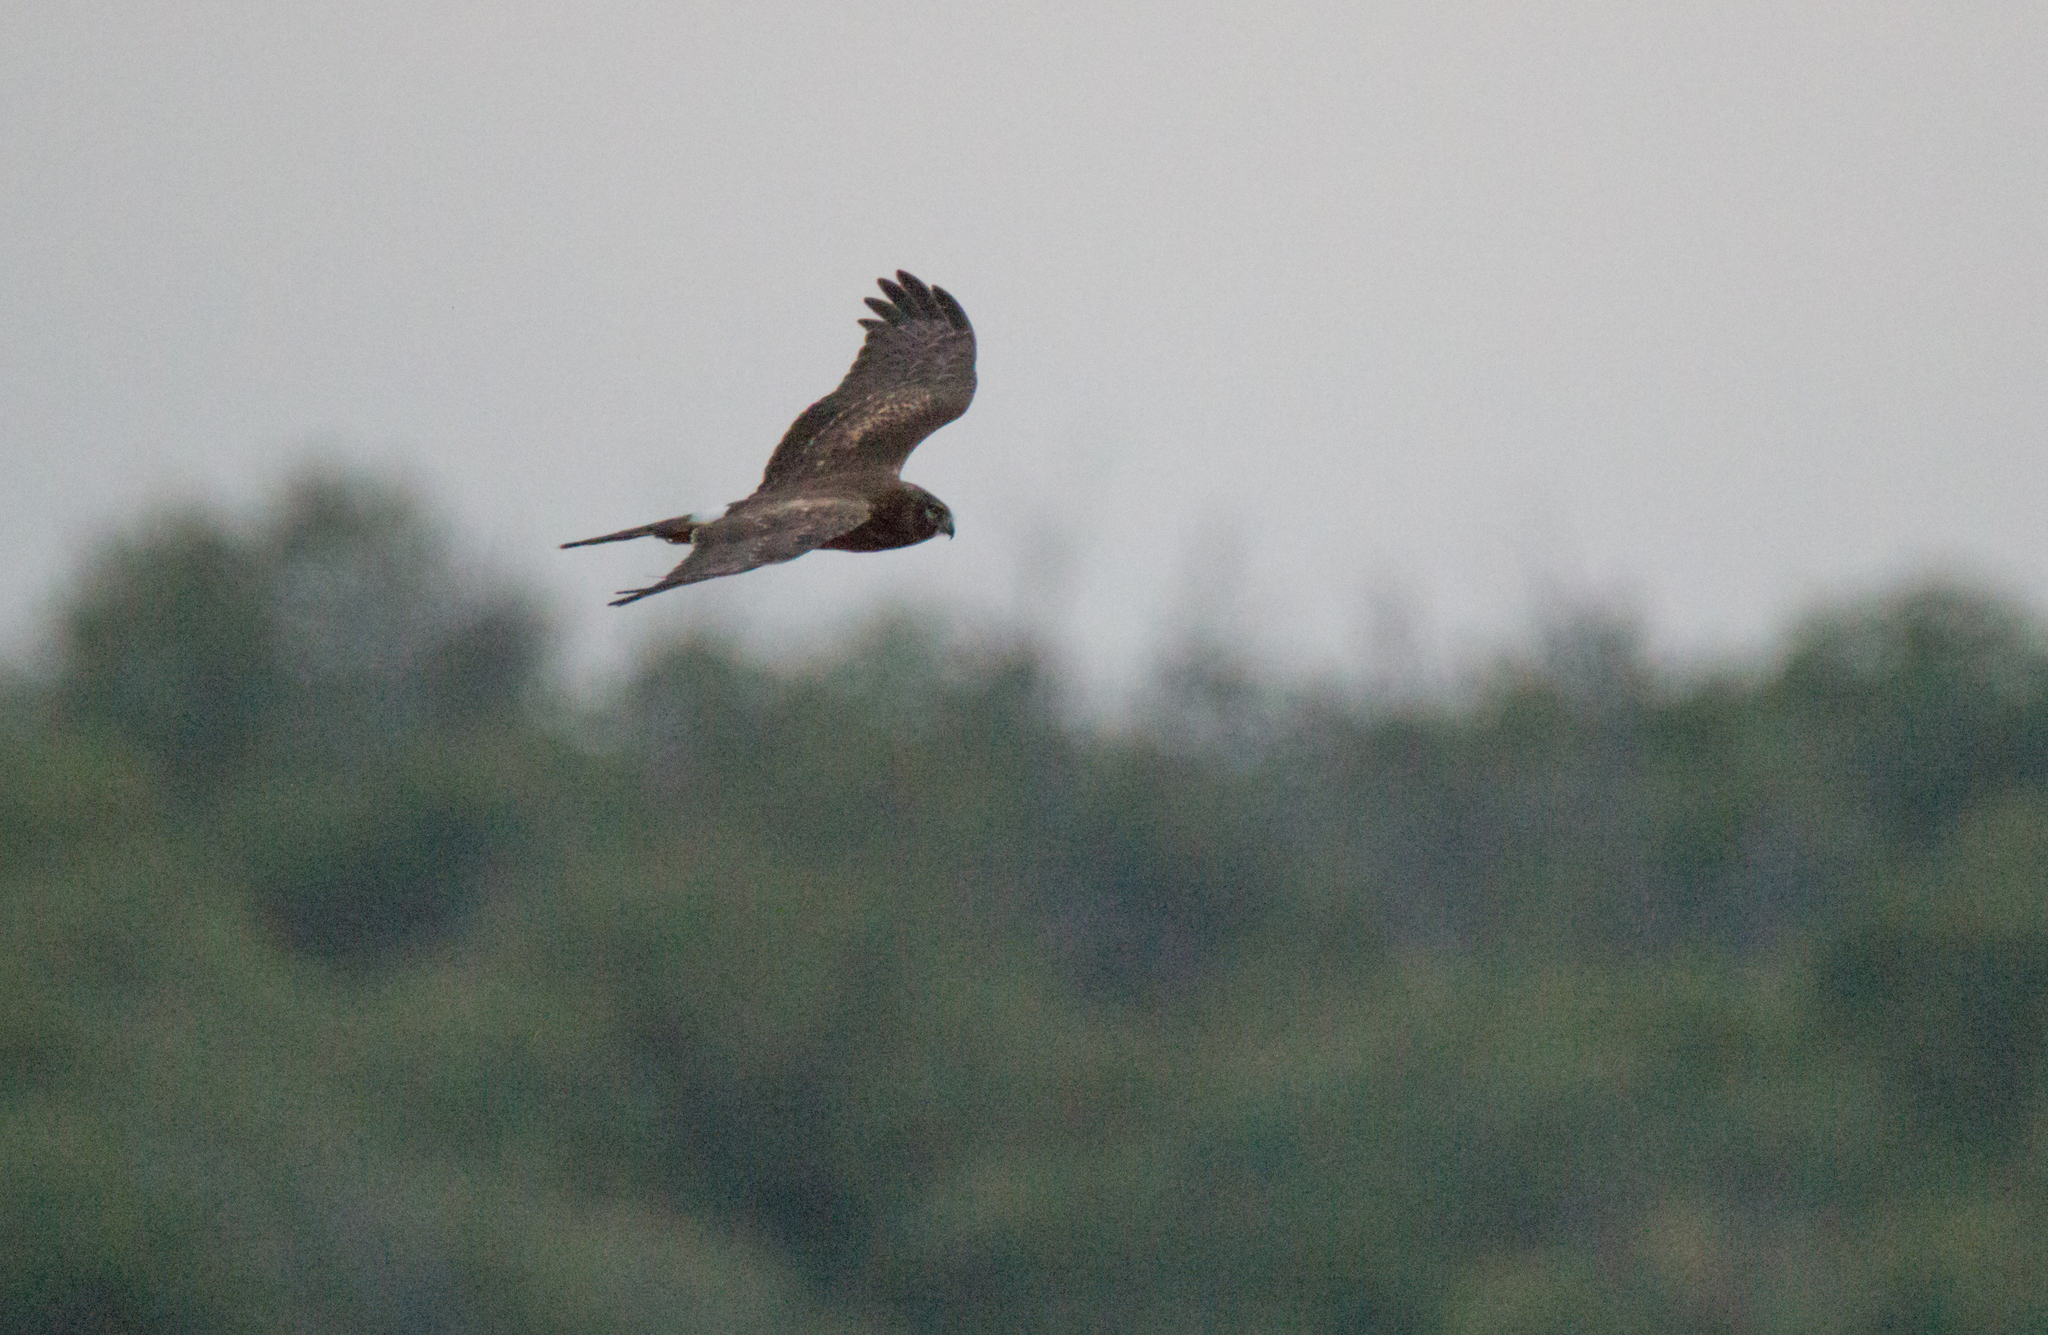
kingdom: Animalia
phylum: Chordata
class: Aves
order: Accipitriformes
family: Accipitridae
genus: Circus
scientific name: Circus cyaneus
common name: Hen harrier
